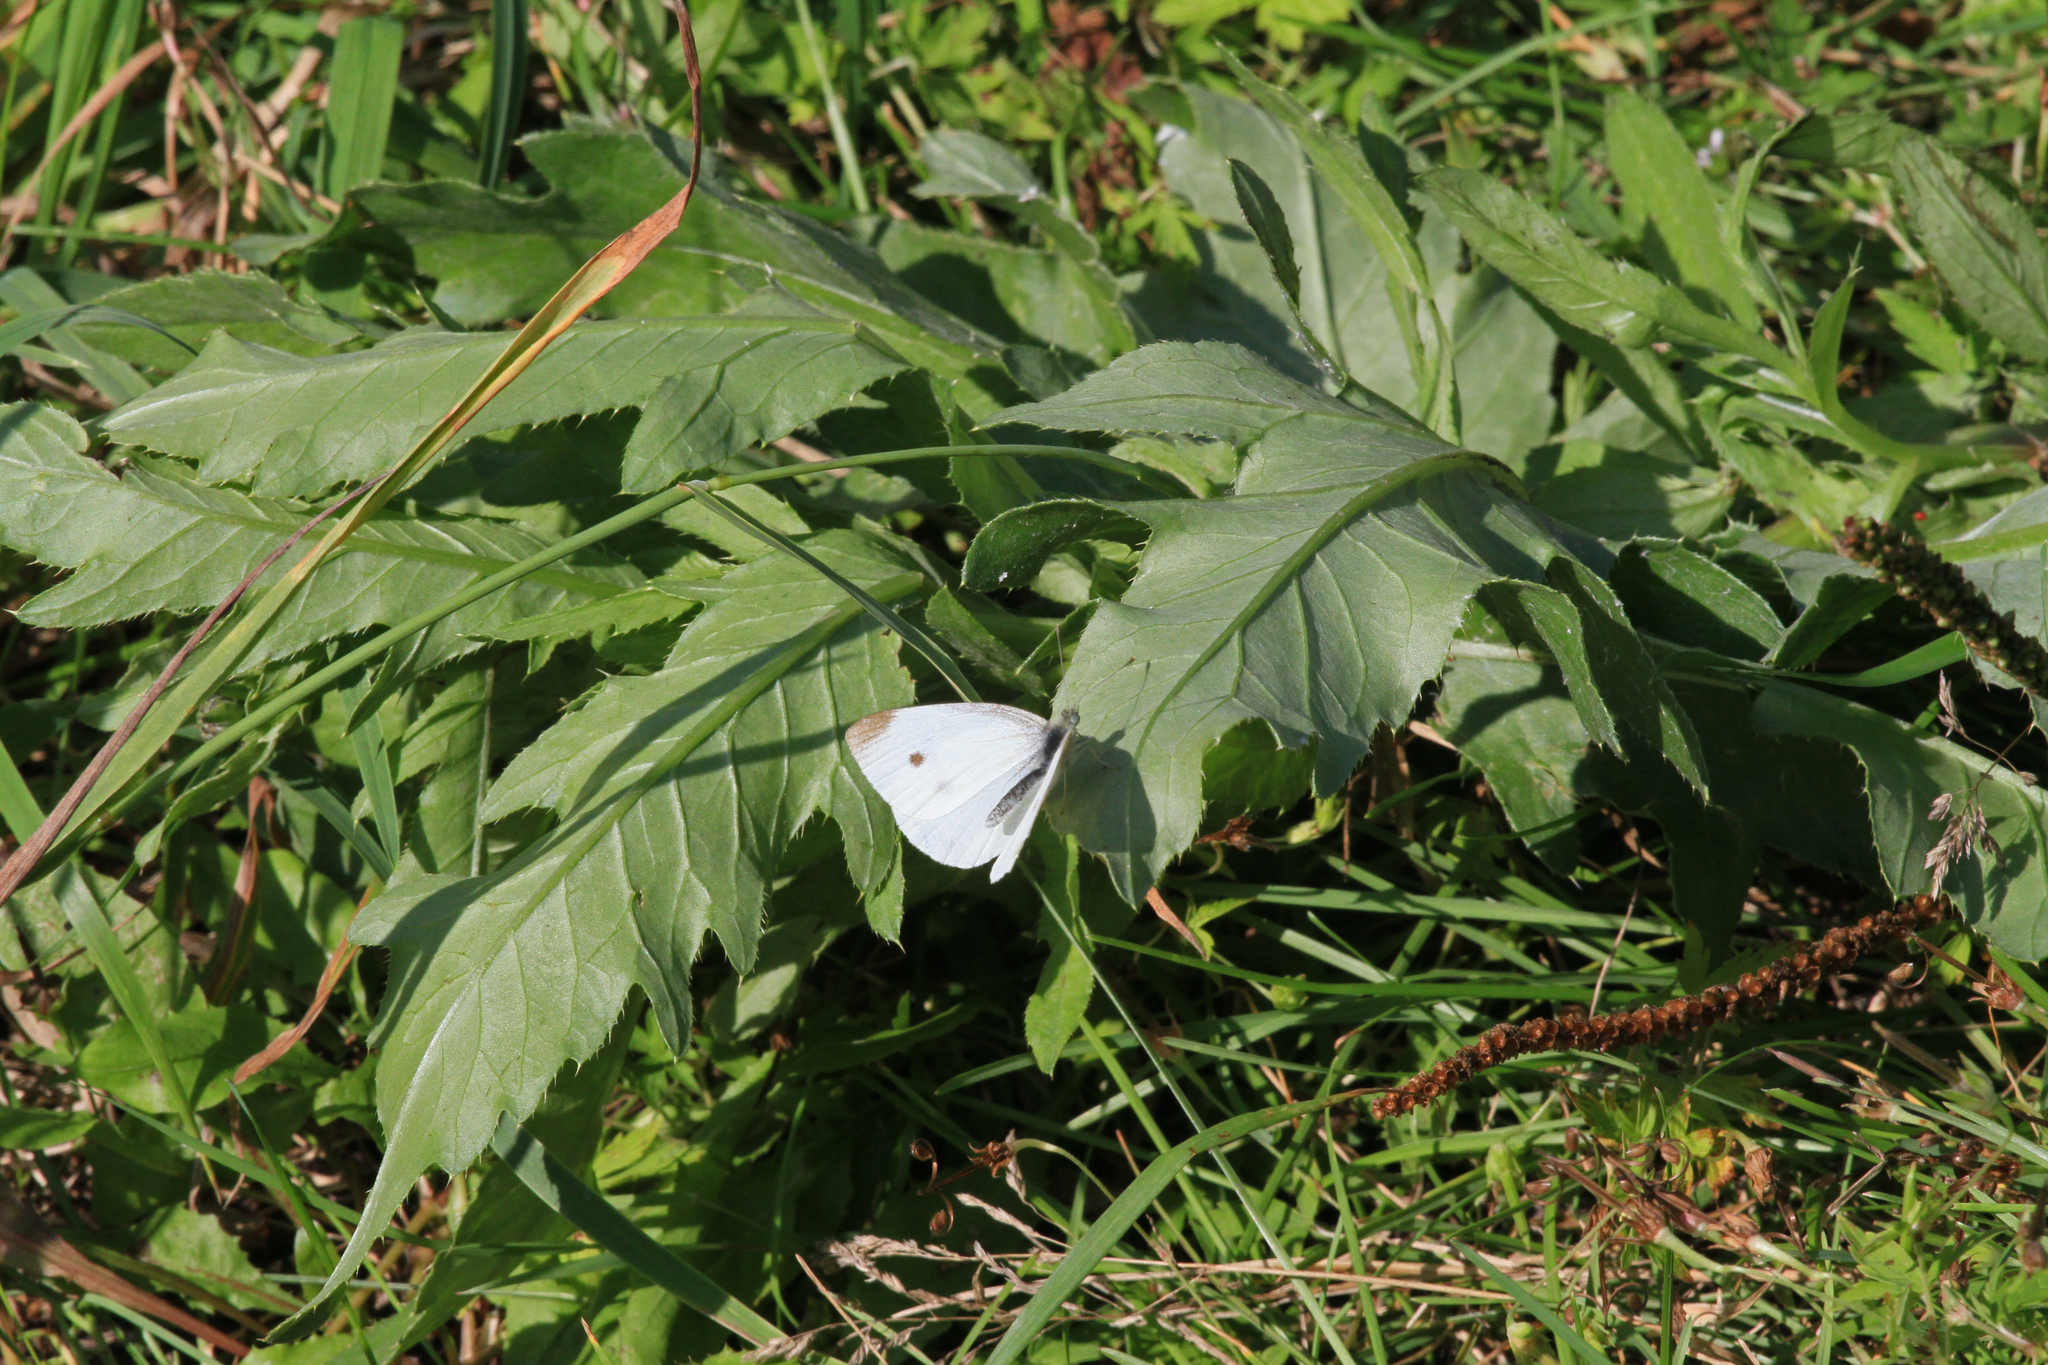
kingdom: Plantae
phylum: Tracheophyta
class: Magnoliopsida
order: Asterales
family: Asteraceae
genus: Cirsium
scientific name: Cirsium arvense
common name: Creeping thistle
